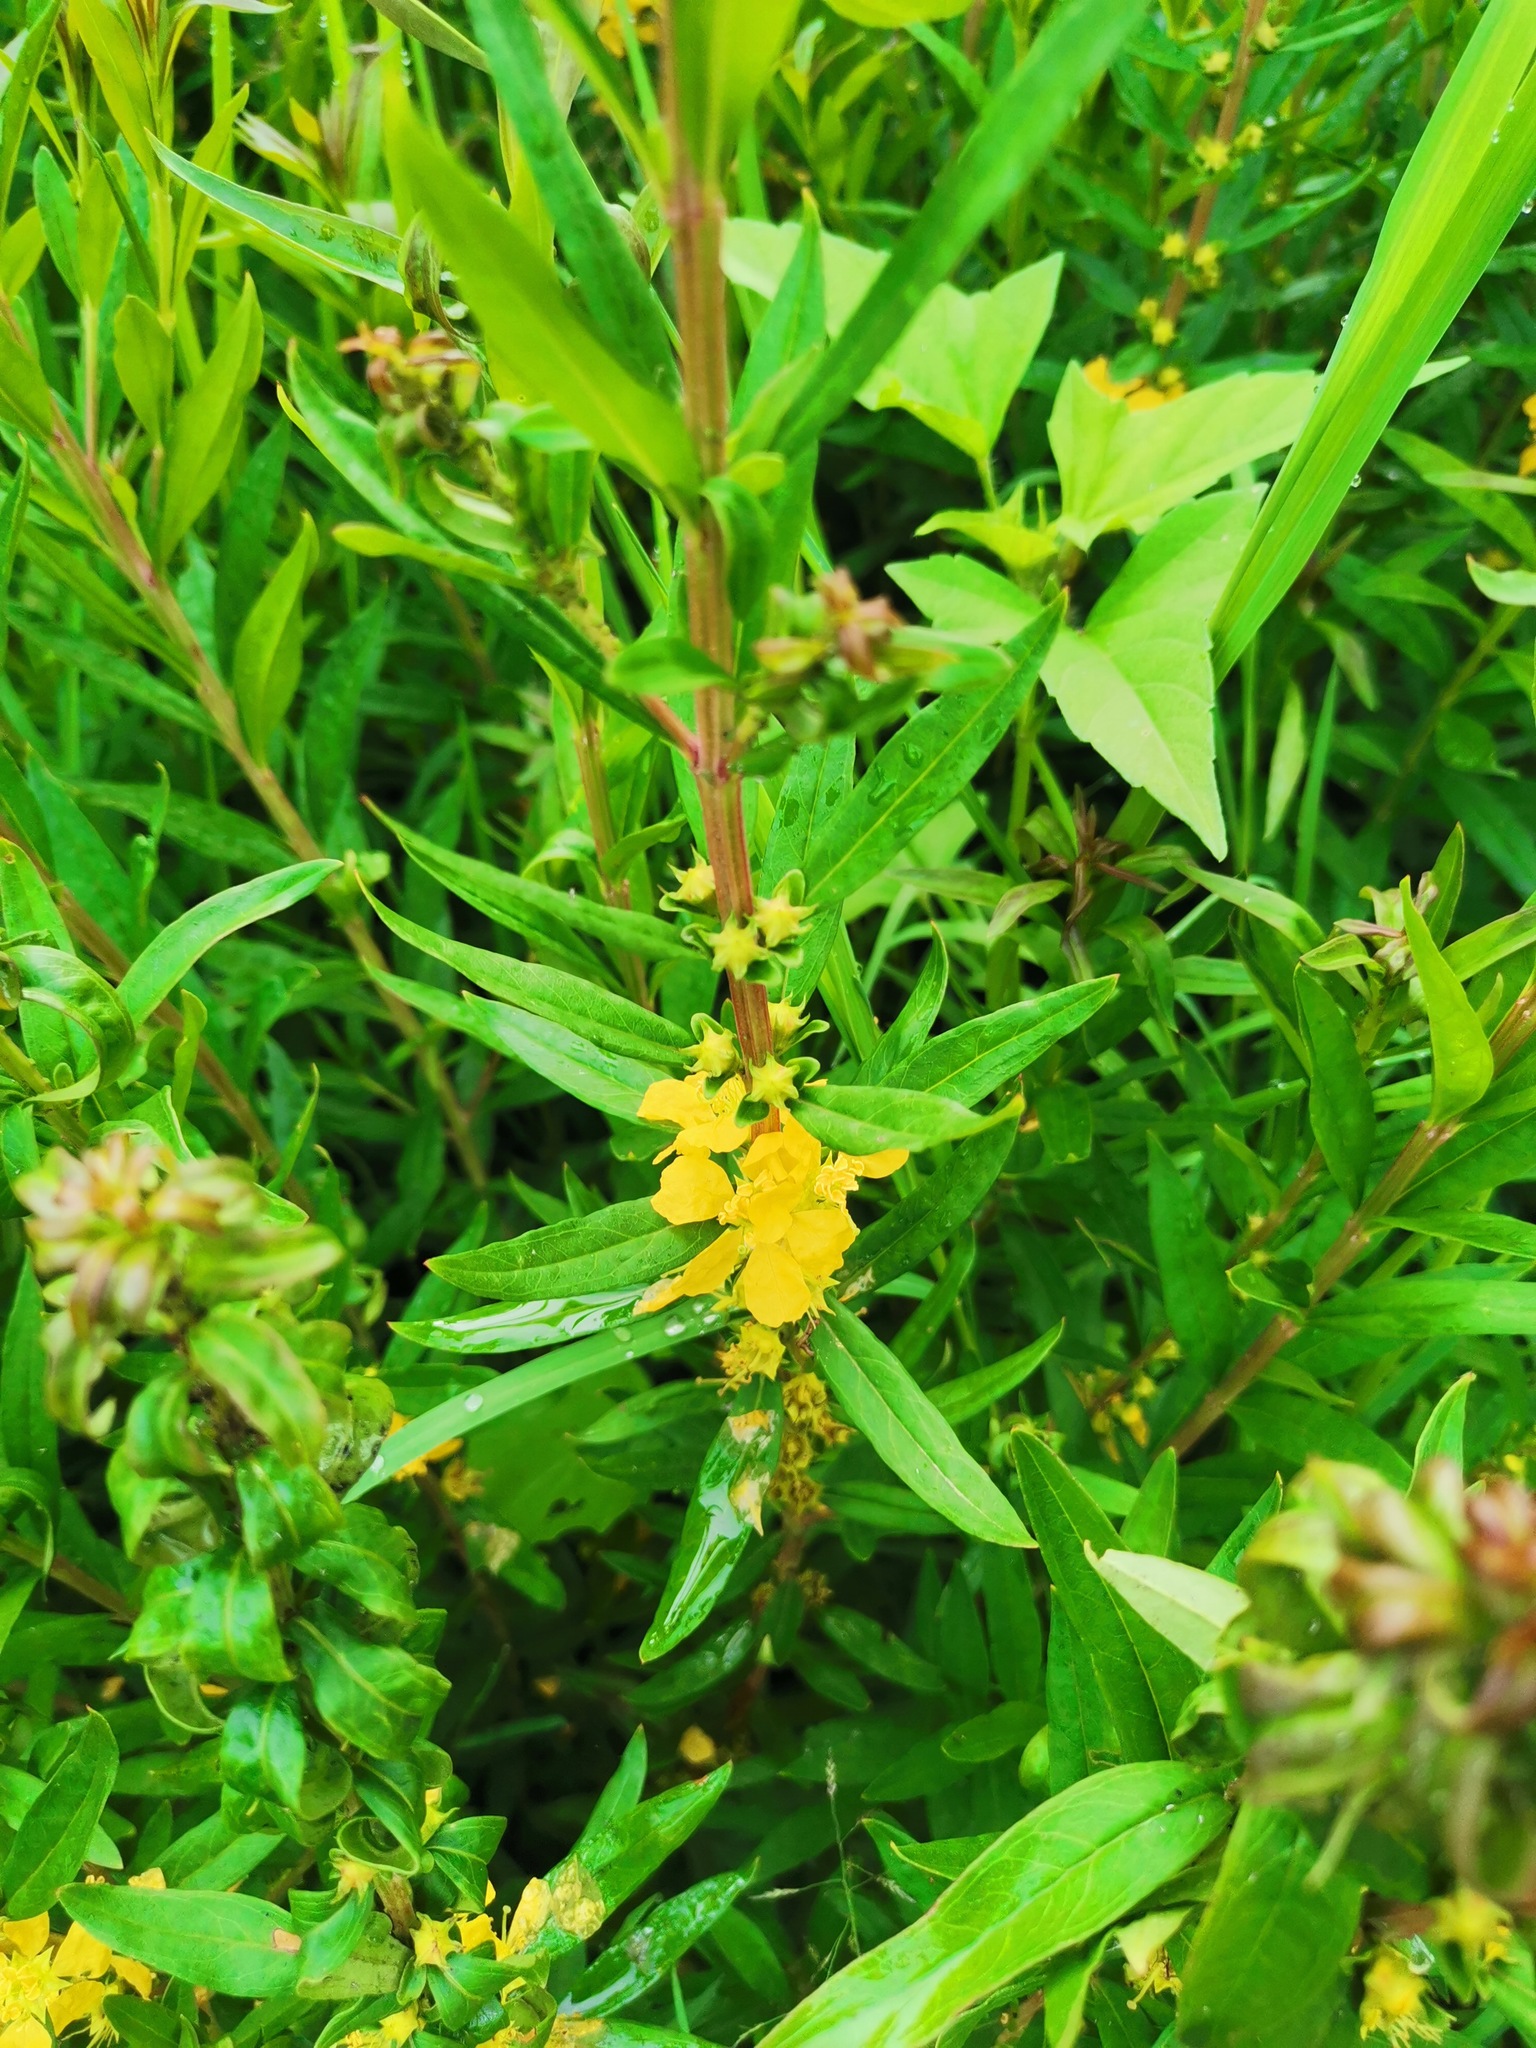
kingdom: Plantae
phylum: Tracheophyta
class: Magnoliopsida
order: Myrtales
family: Lythraceae
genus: Heimia
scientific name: Heimia salicifolia
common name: Willow-leaf heimia
